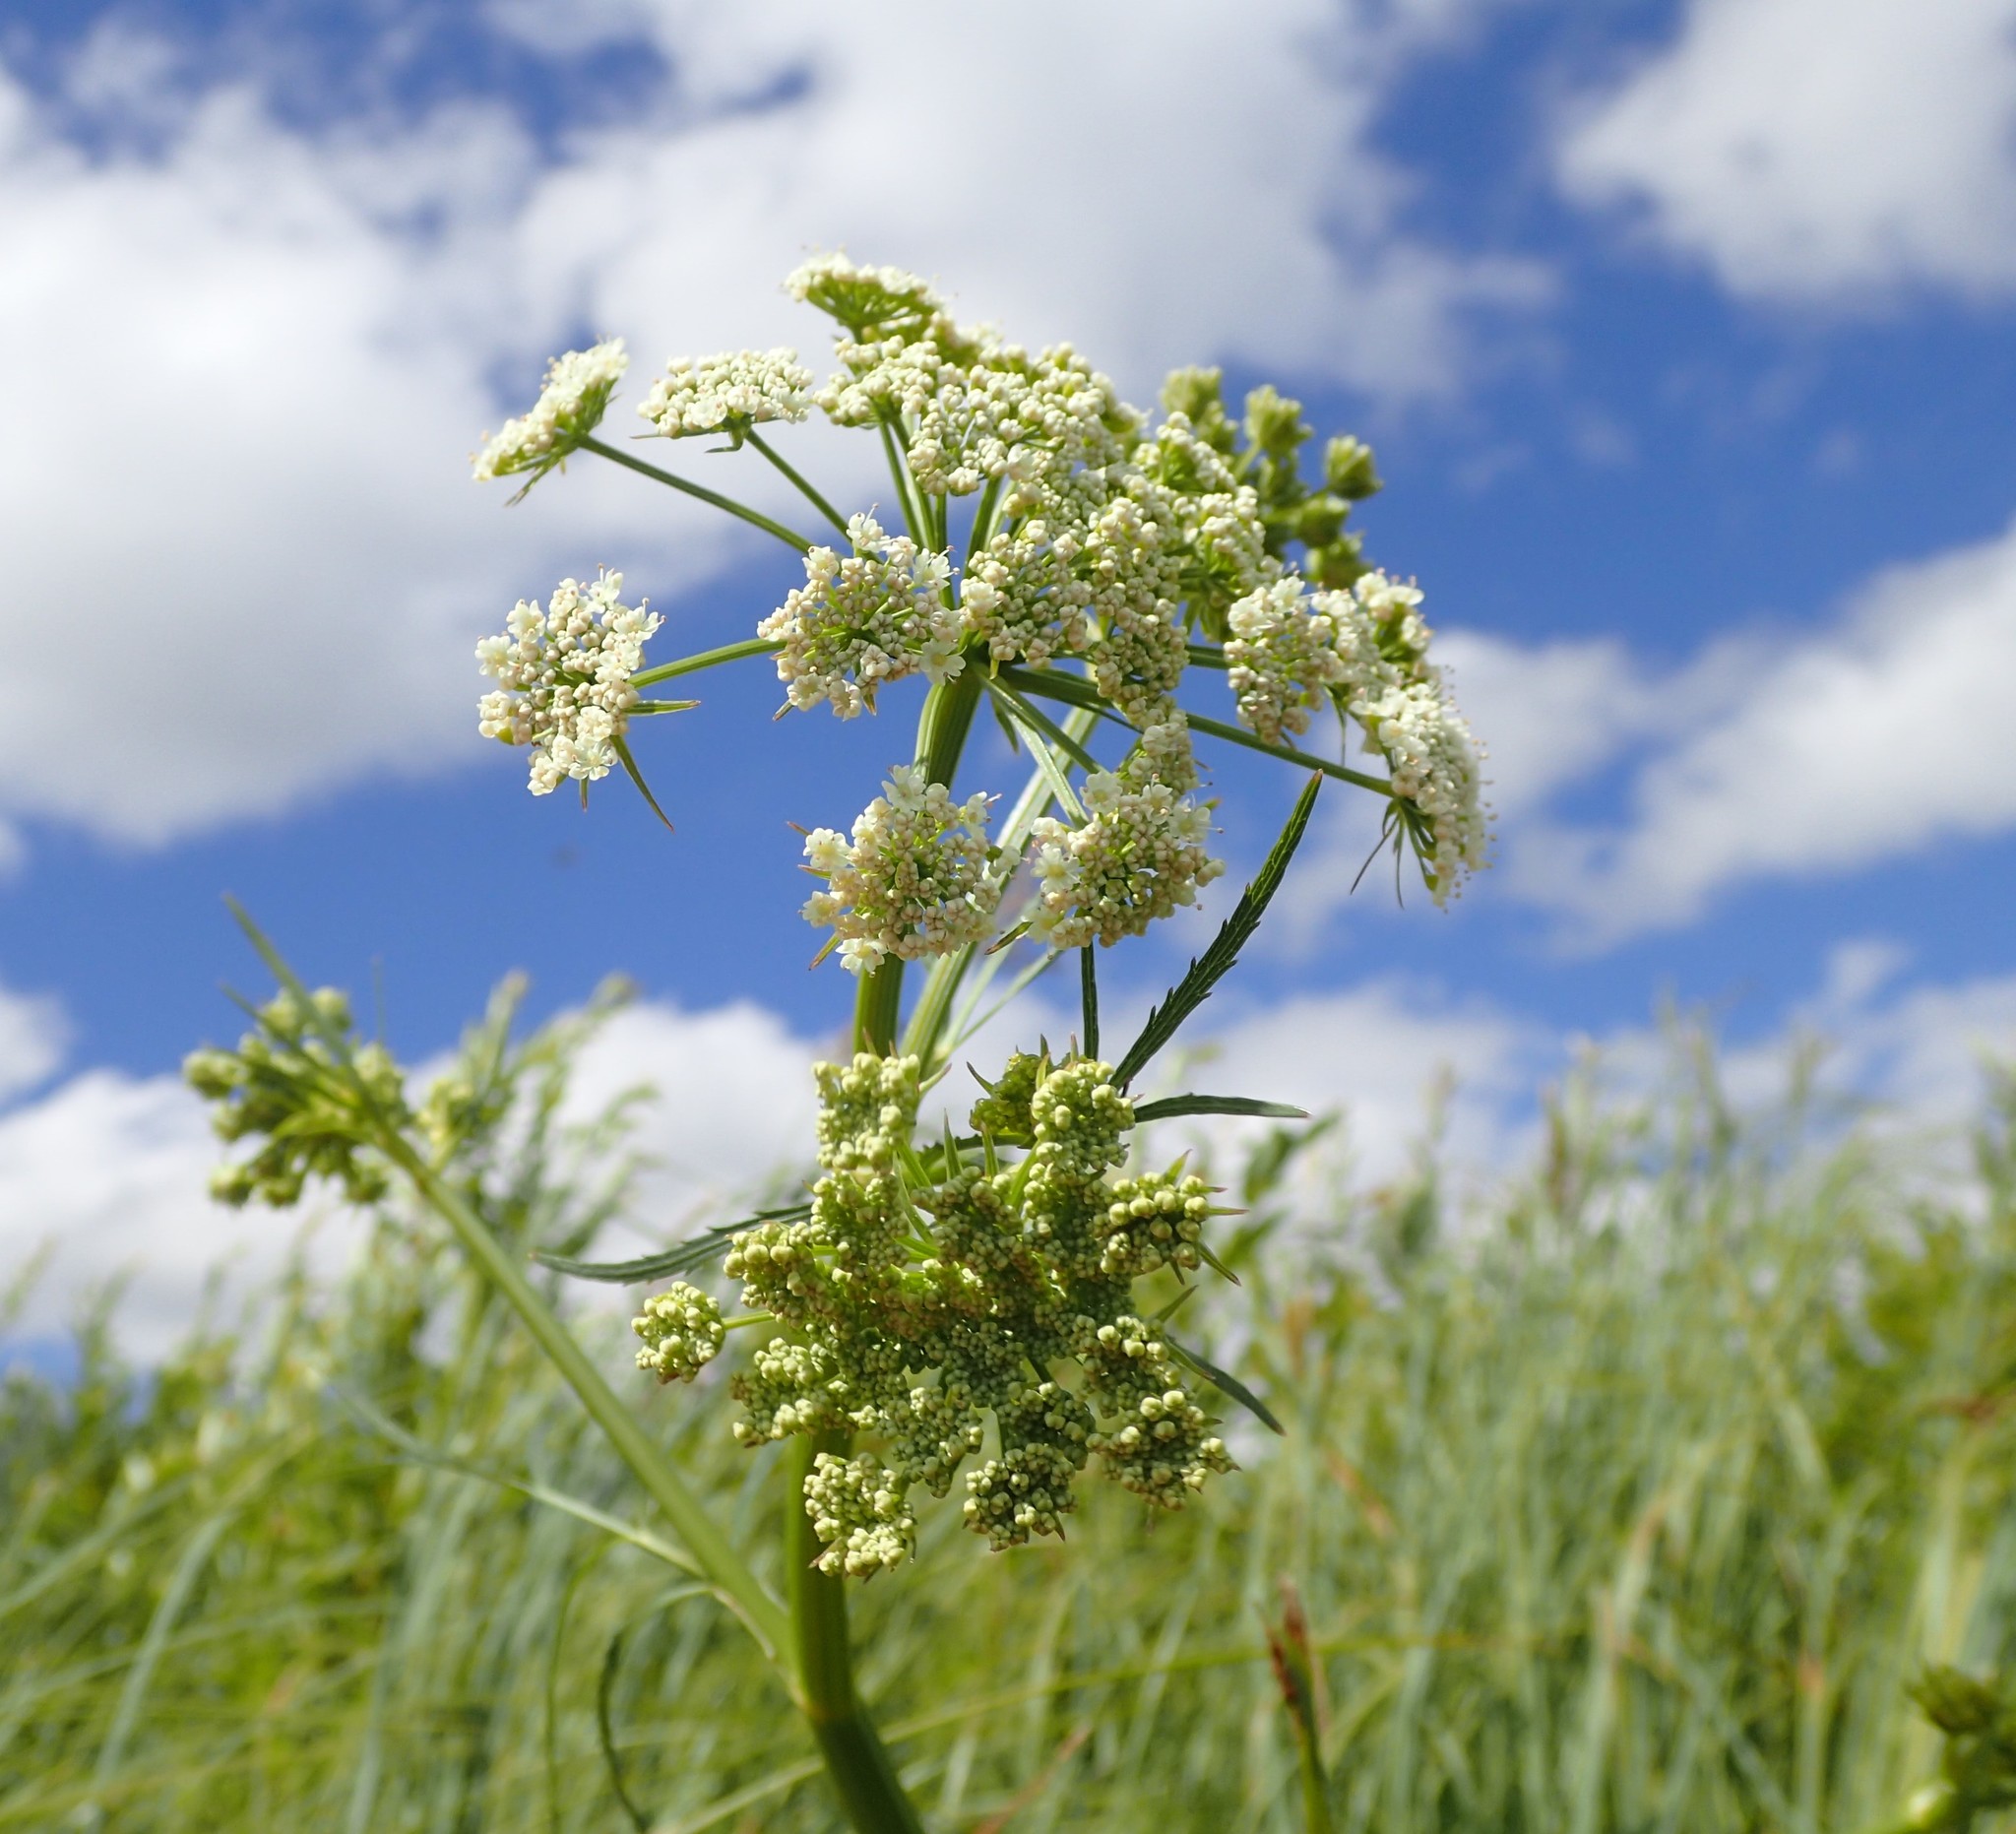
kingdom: Plantae
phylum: Tracheophyta
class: Magnoliopsida
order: Apiales
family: Apiaceae
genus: Sium
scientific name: Sium suave
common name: Hemlock water-parsnip
